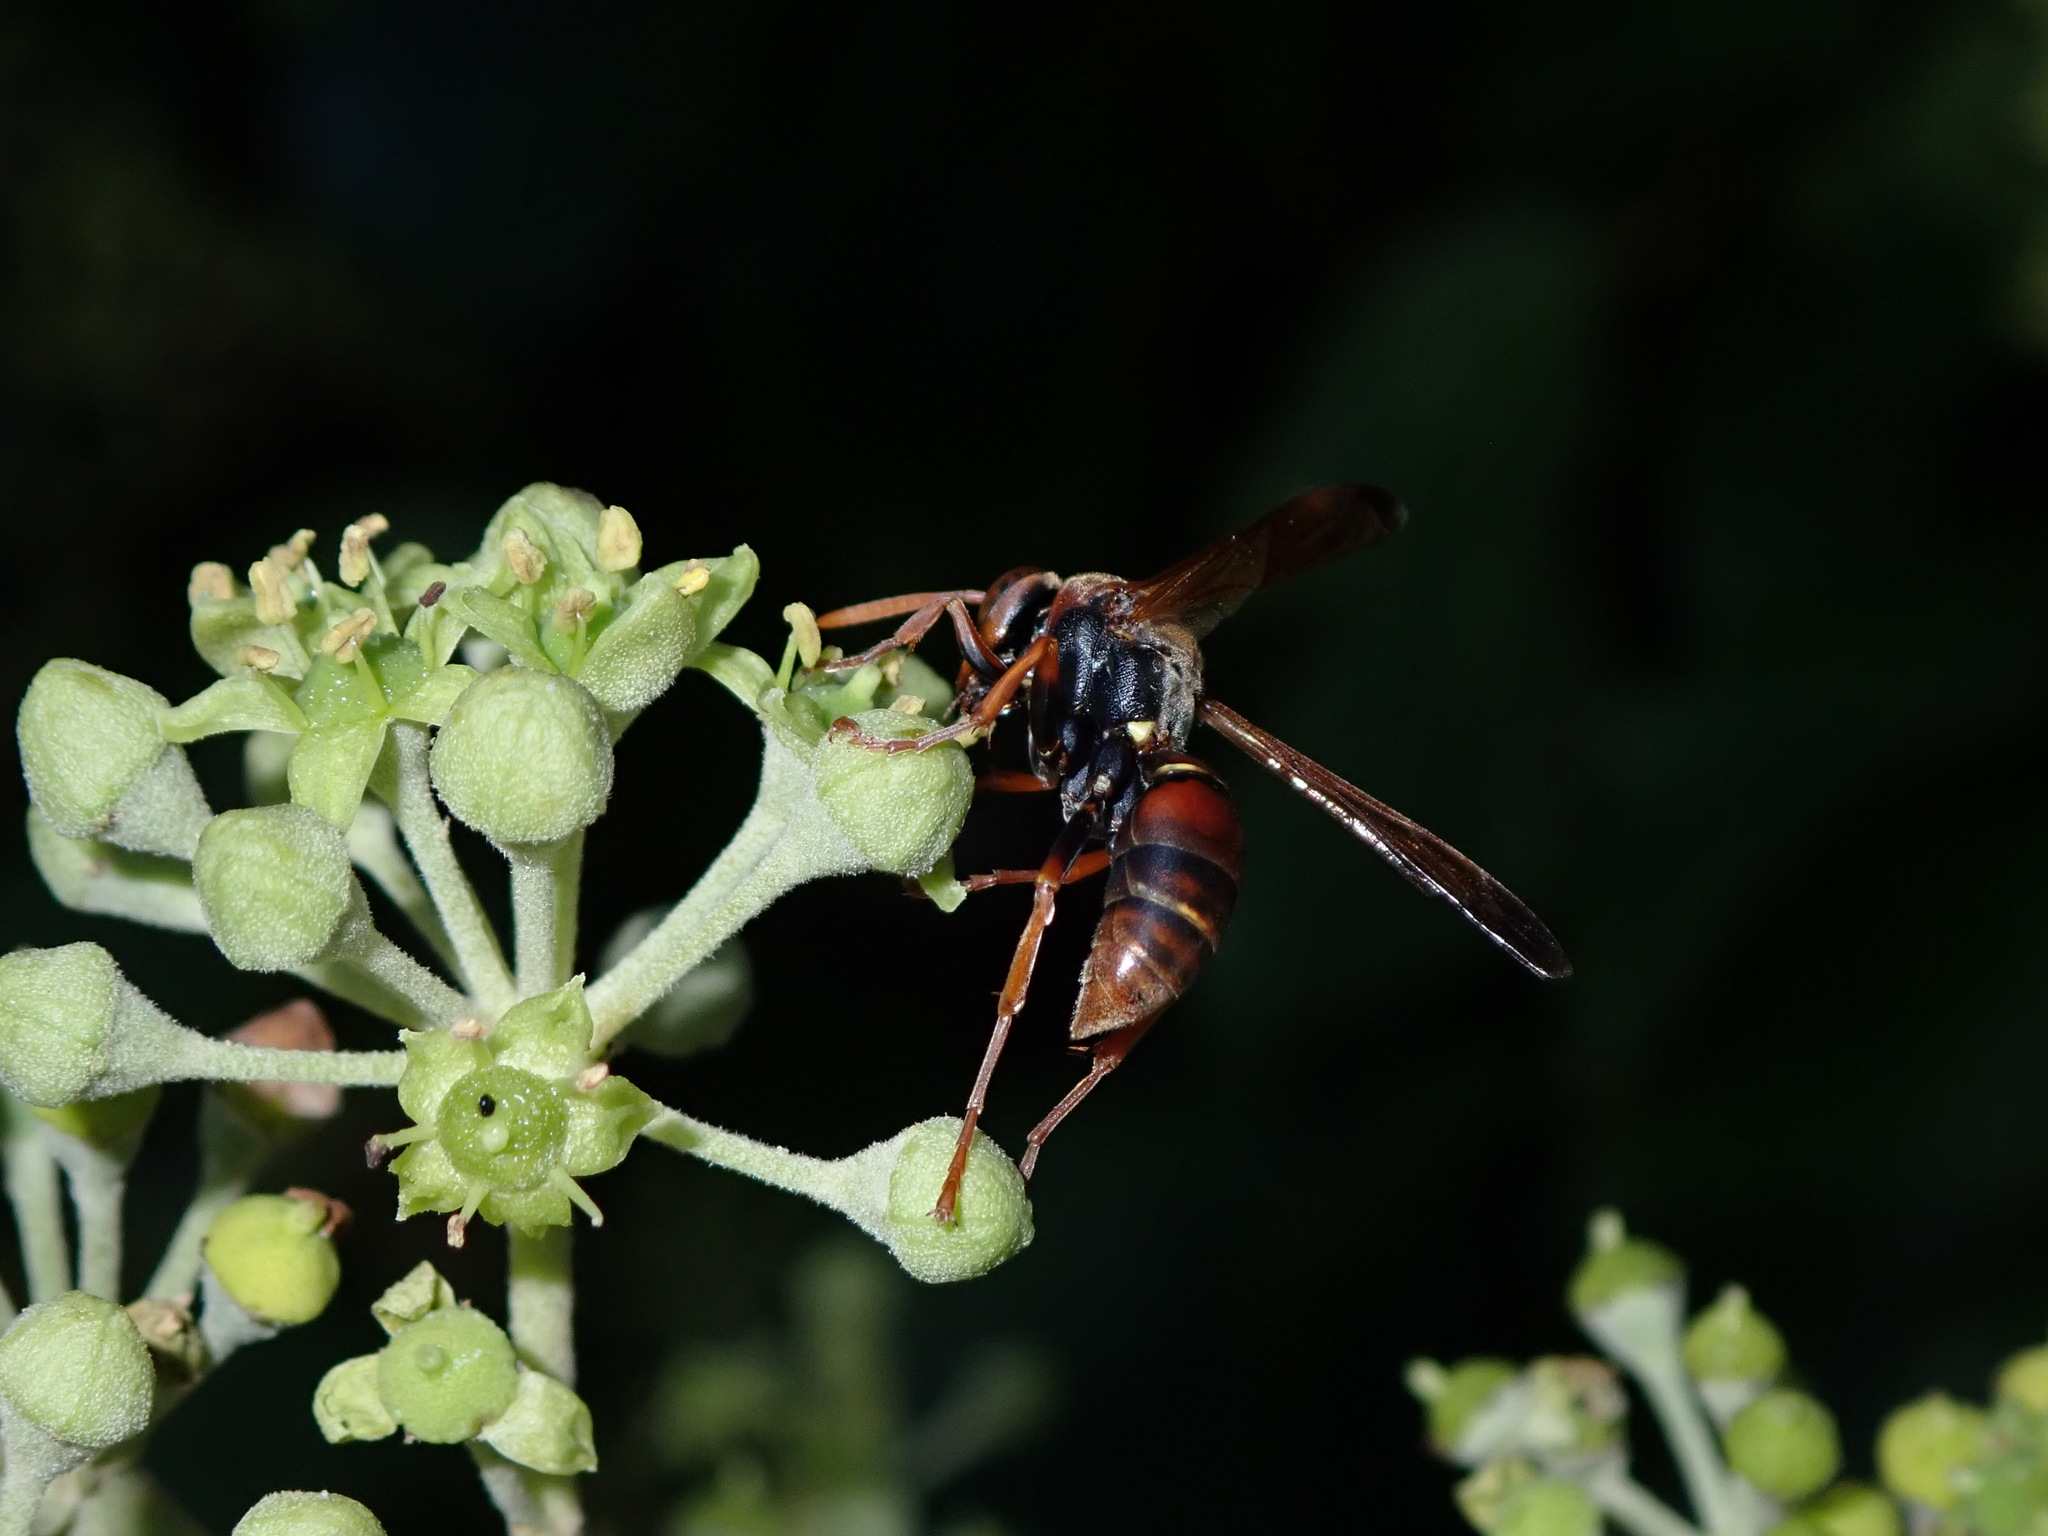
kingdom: Animalia
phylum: Arthropoda
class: Insecta
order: Hymenoptera
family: Eumenidae
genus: Polistes
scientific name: Polistes humilis
